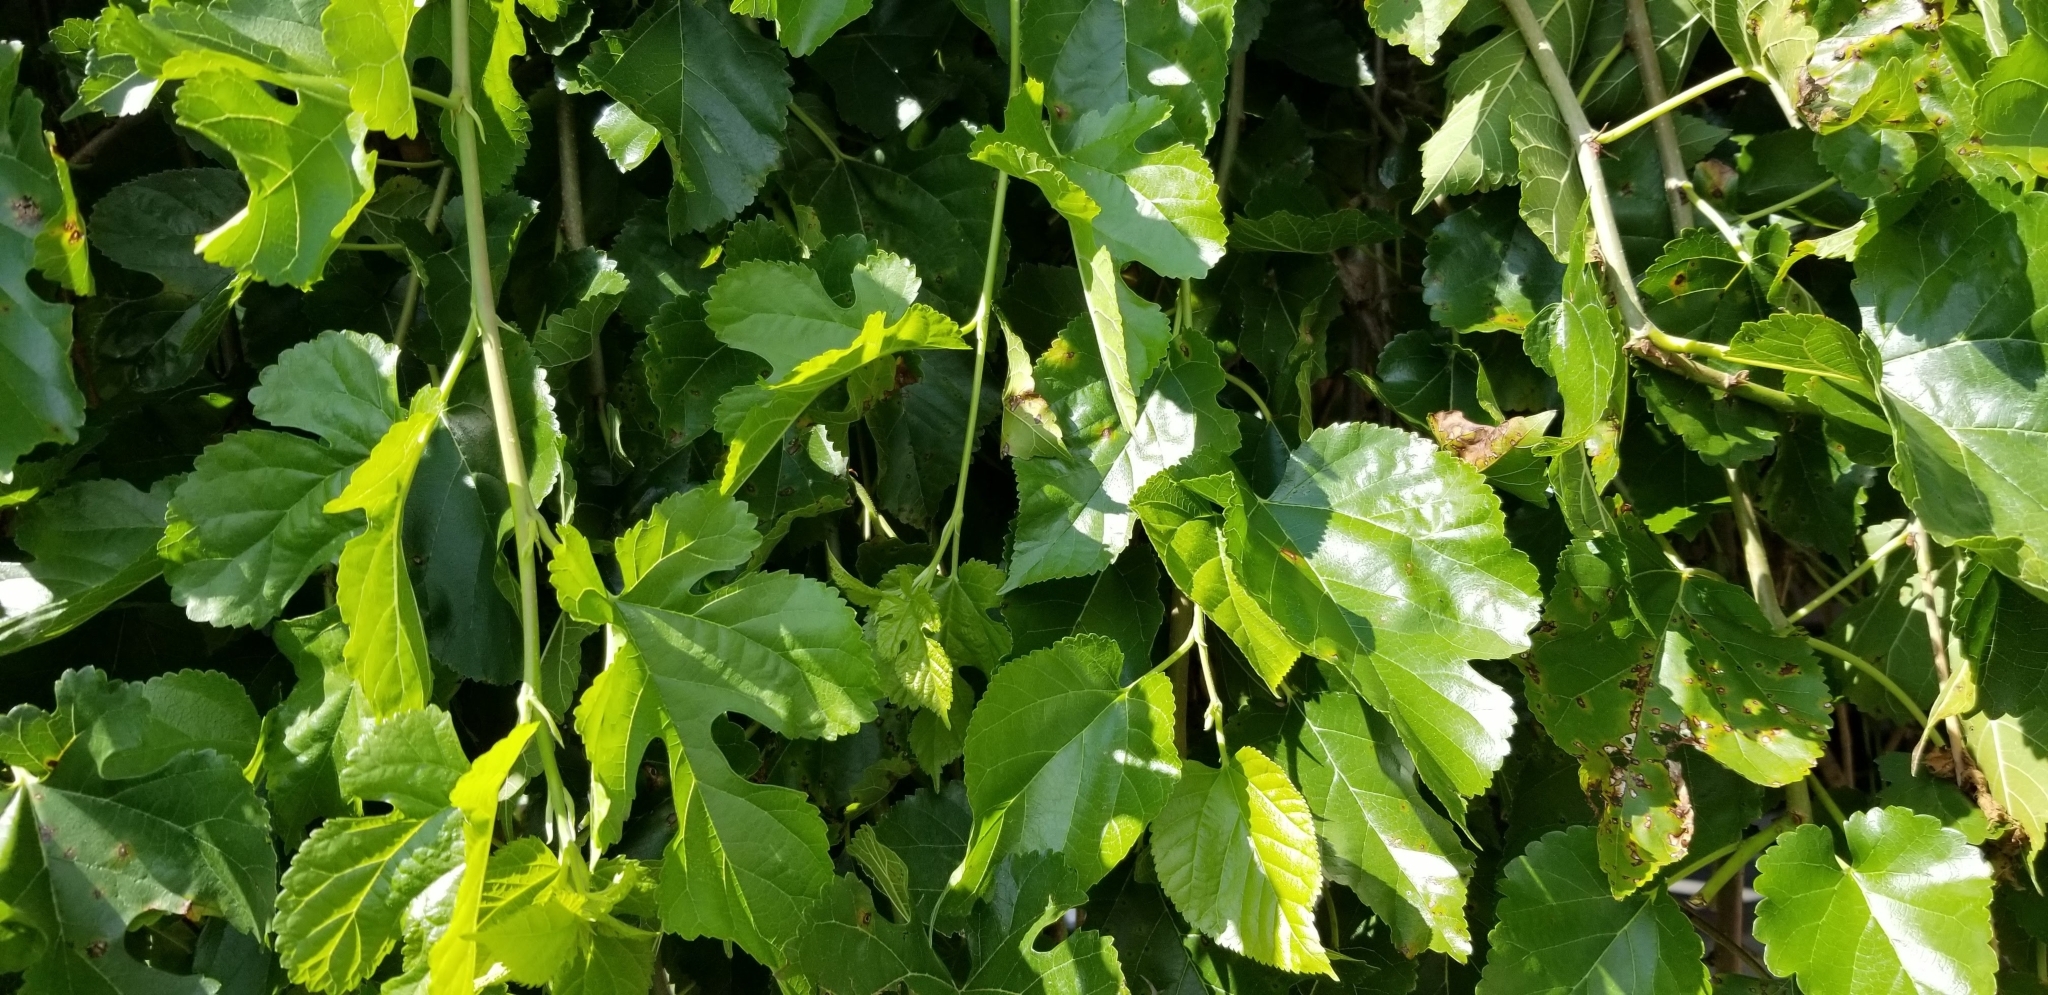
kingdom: Plantae
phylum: Tracheophyta
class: Magnoliopsida
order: Rosales
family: Moraceae
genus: Morus
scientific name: Morus alba
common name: White mulberry
